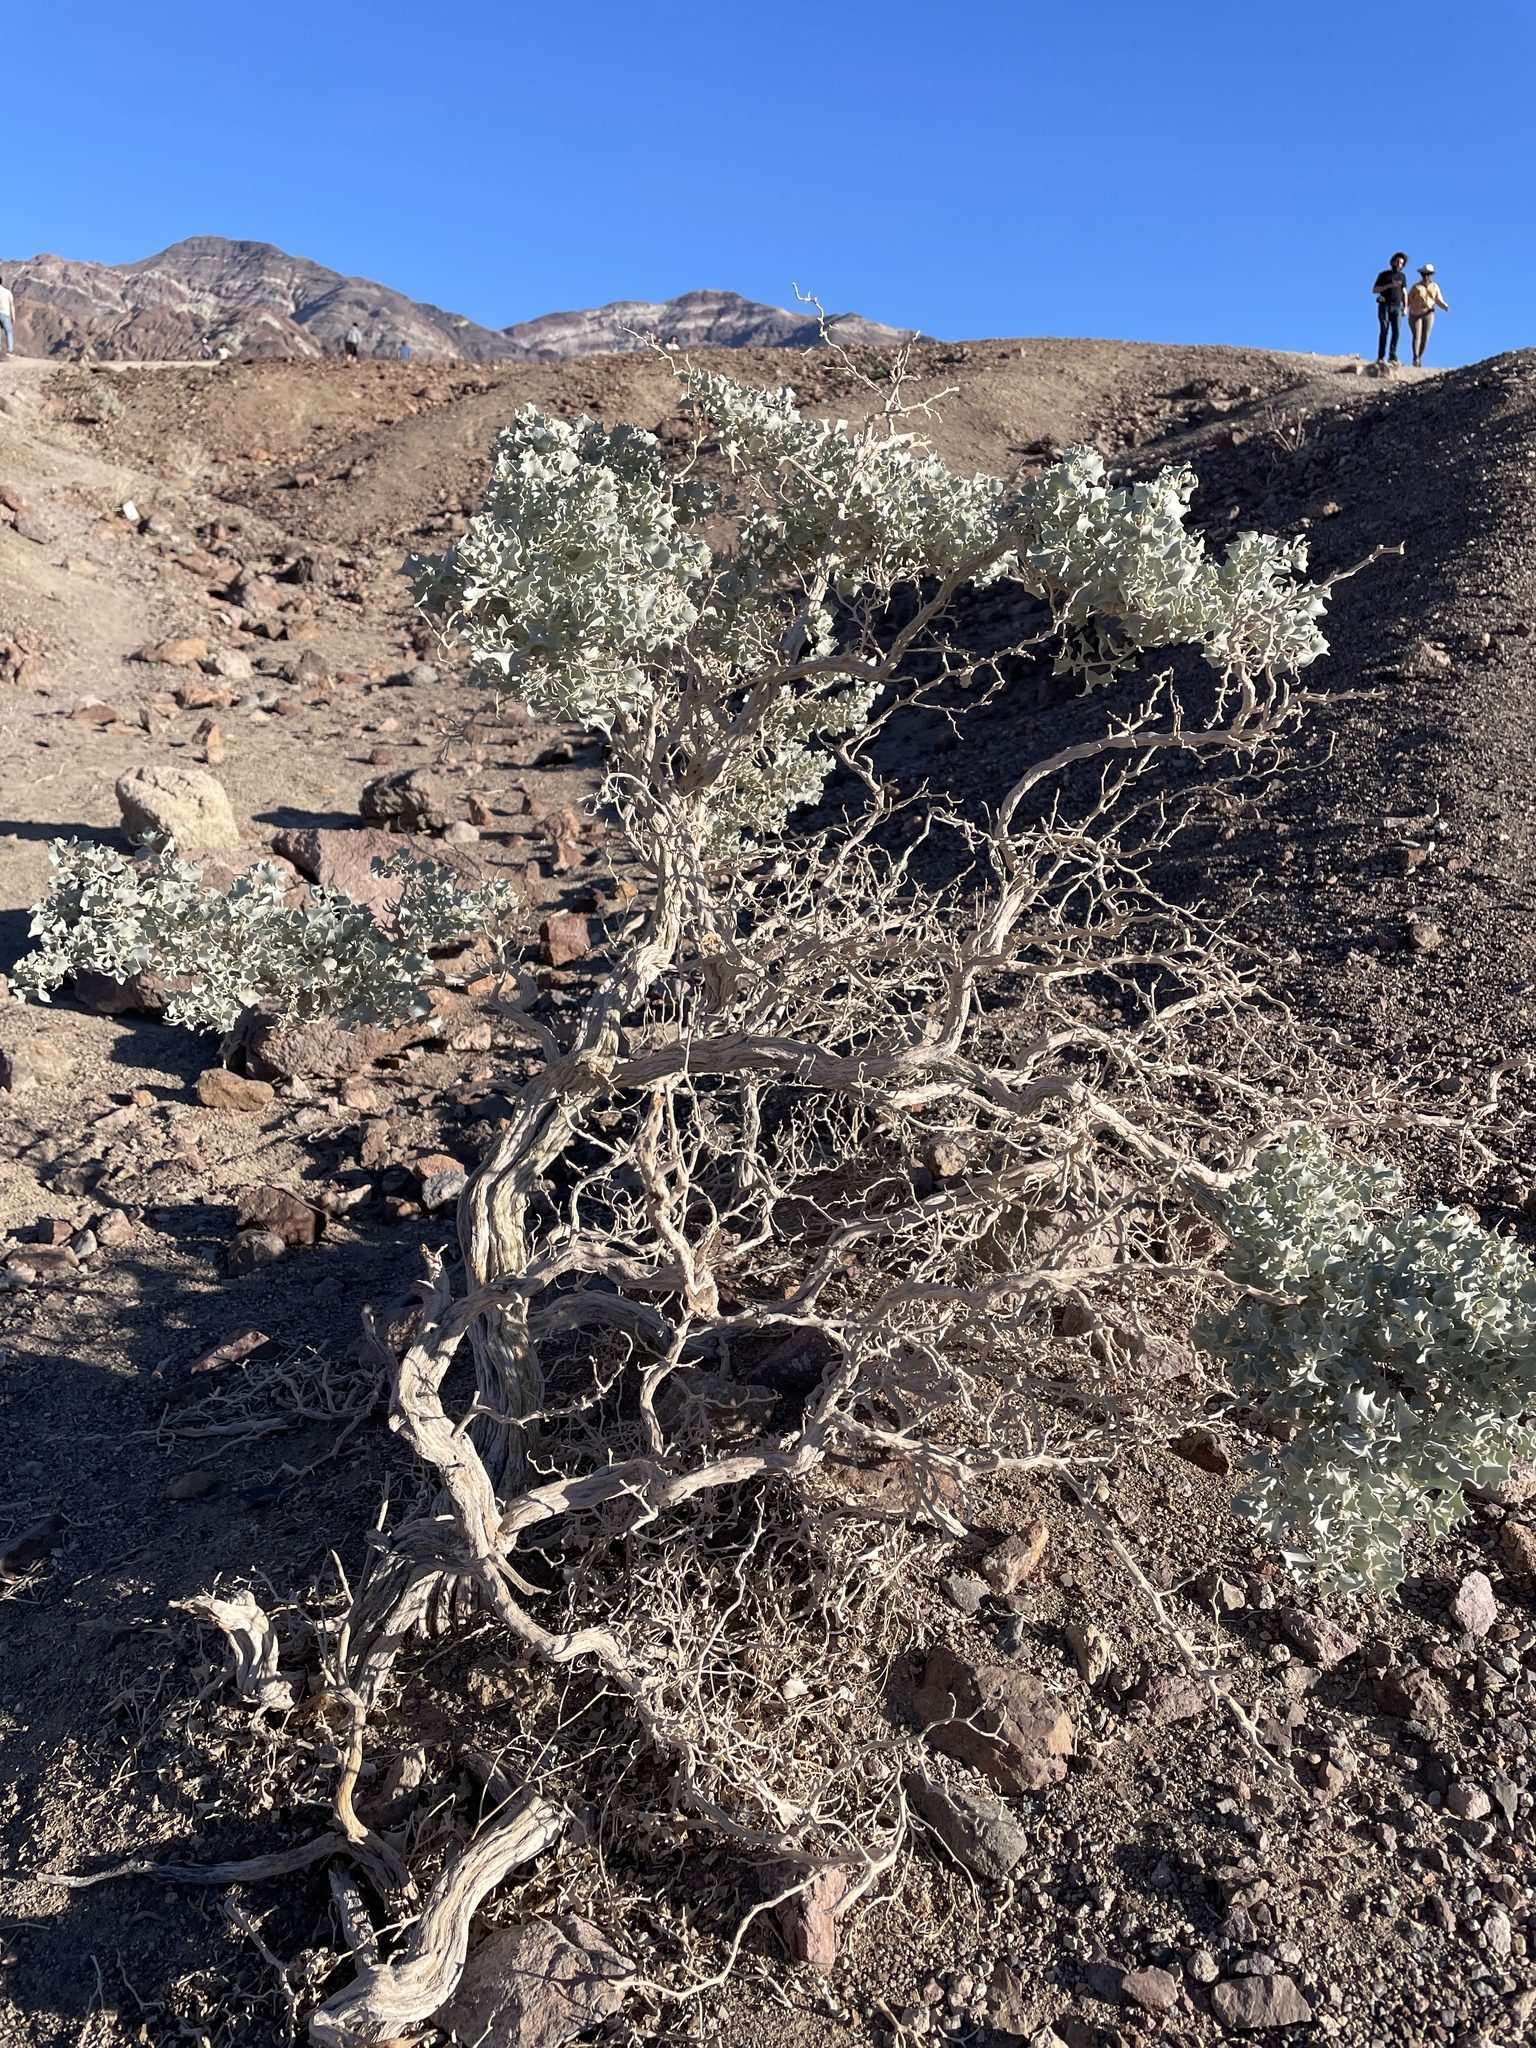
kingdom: Plantae
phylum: Tracheophyta
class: Magnoliopsida
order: Caryophyllales
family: Amaranthaceae
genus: Atriplex
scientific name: Atriplex hymenelytra
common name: Desert-holly
